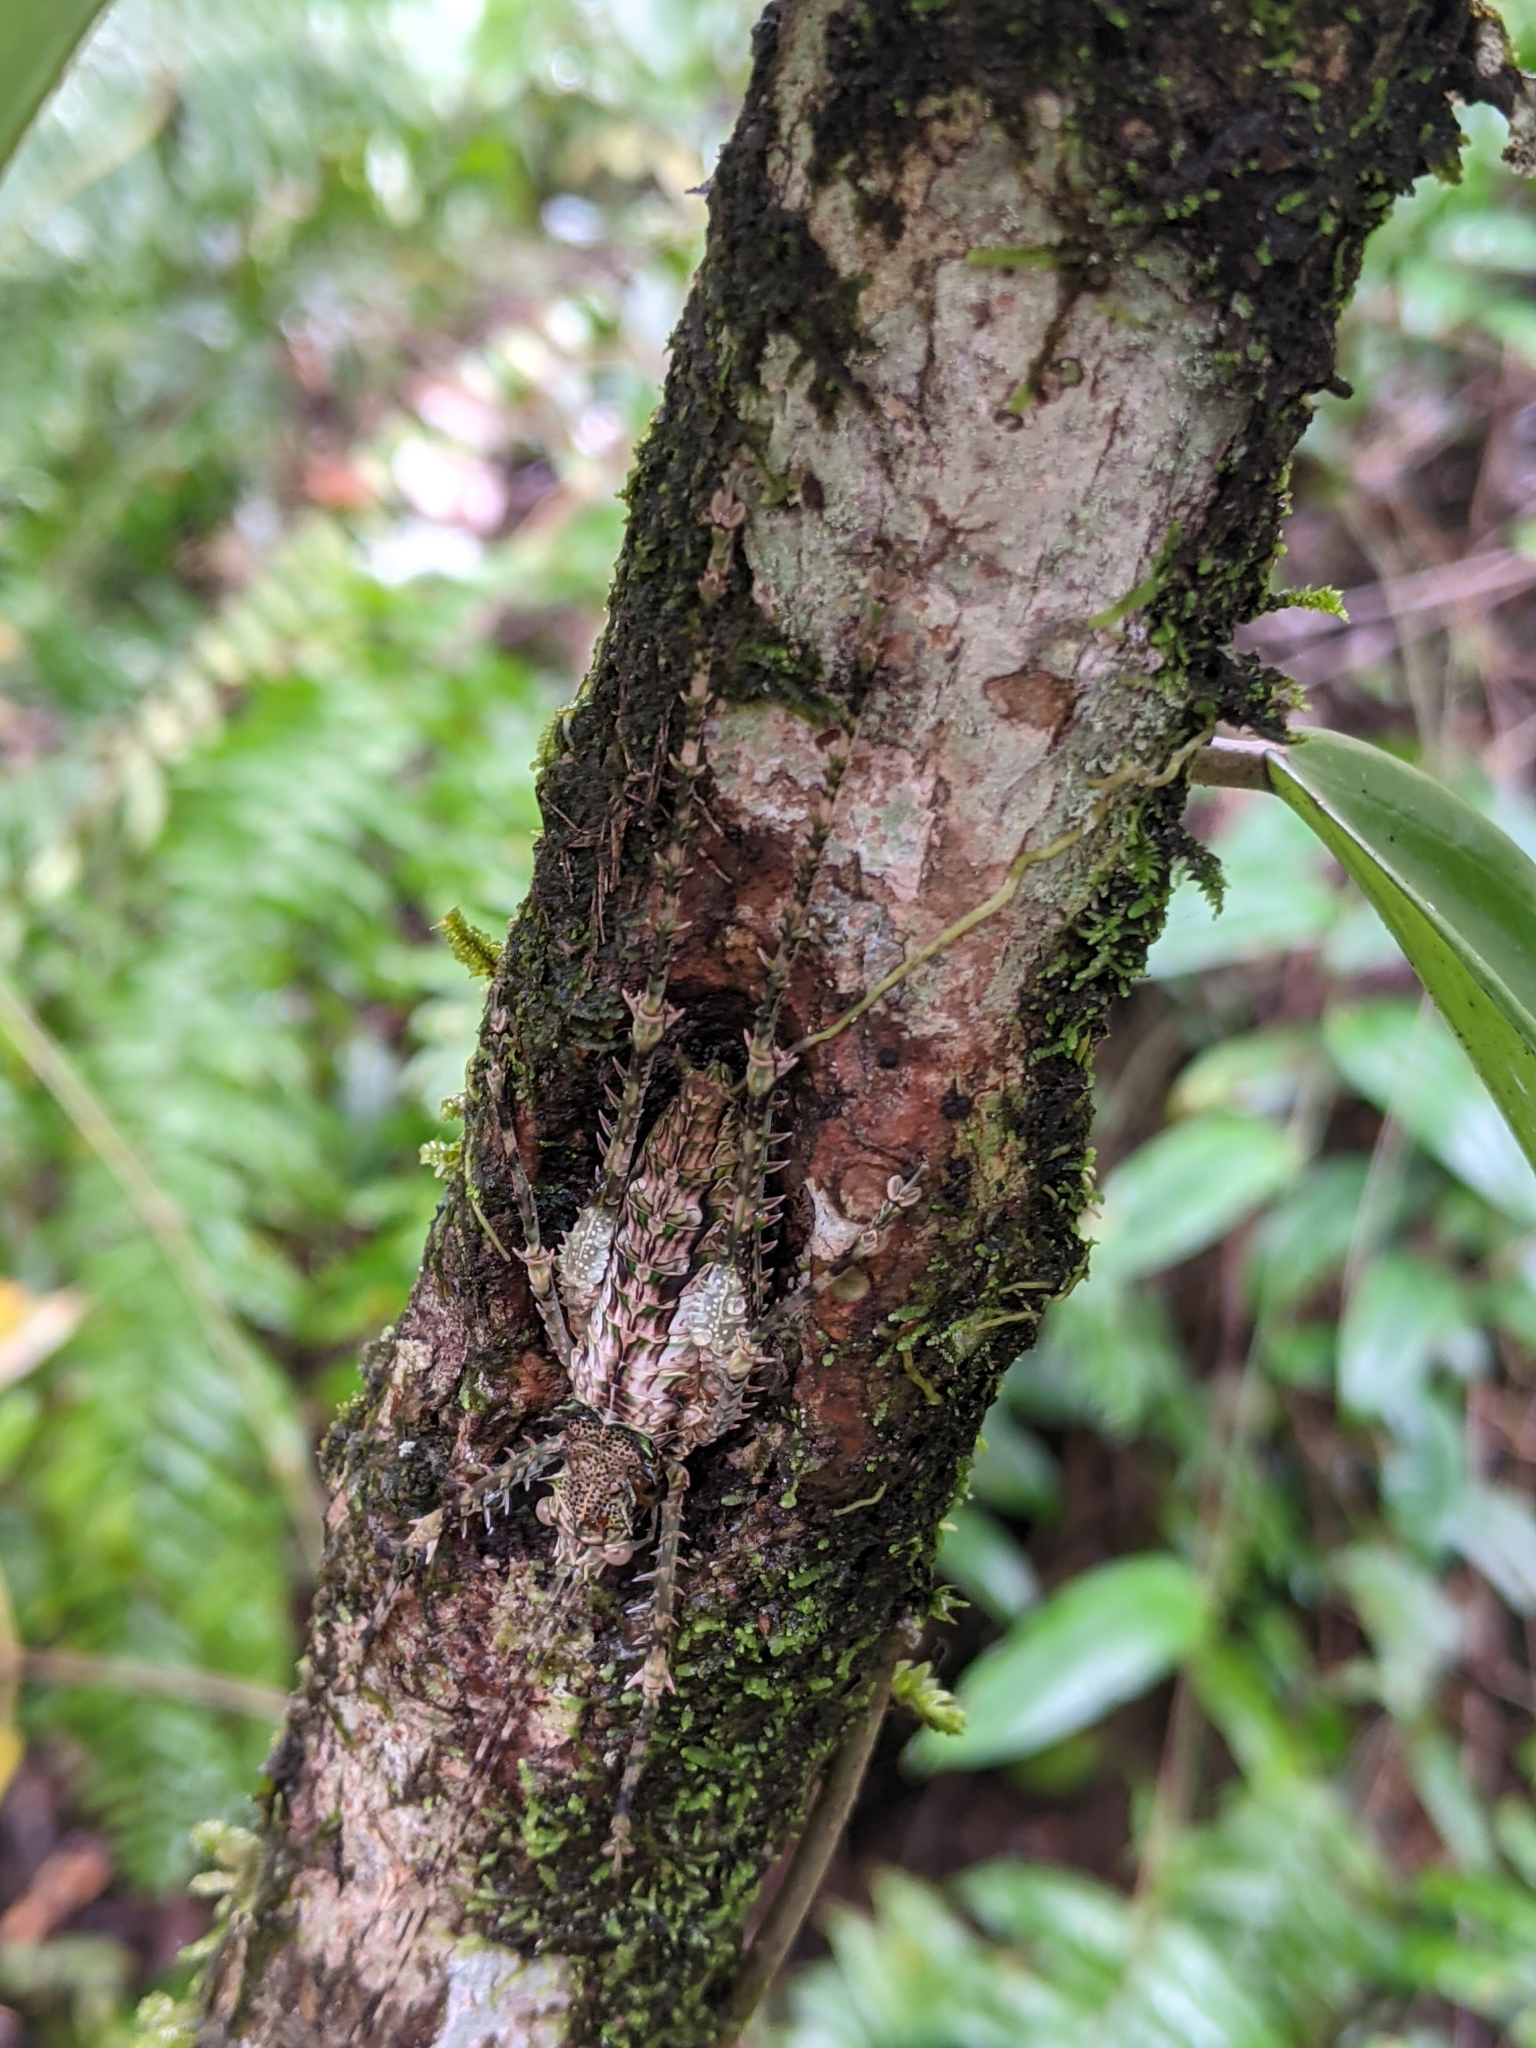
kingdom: Animalia
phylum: Arthropoda
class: Insecta
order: Orthoptera
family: Tettigoniidae
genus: Phricta
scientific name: Phricta spinosa
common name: Giant spiny forest katydid
